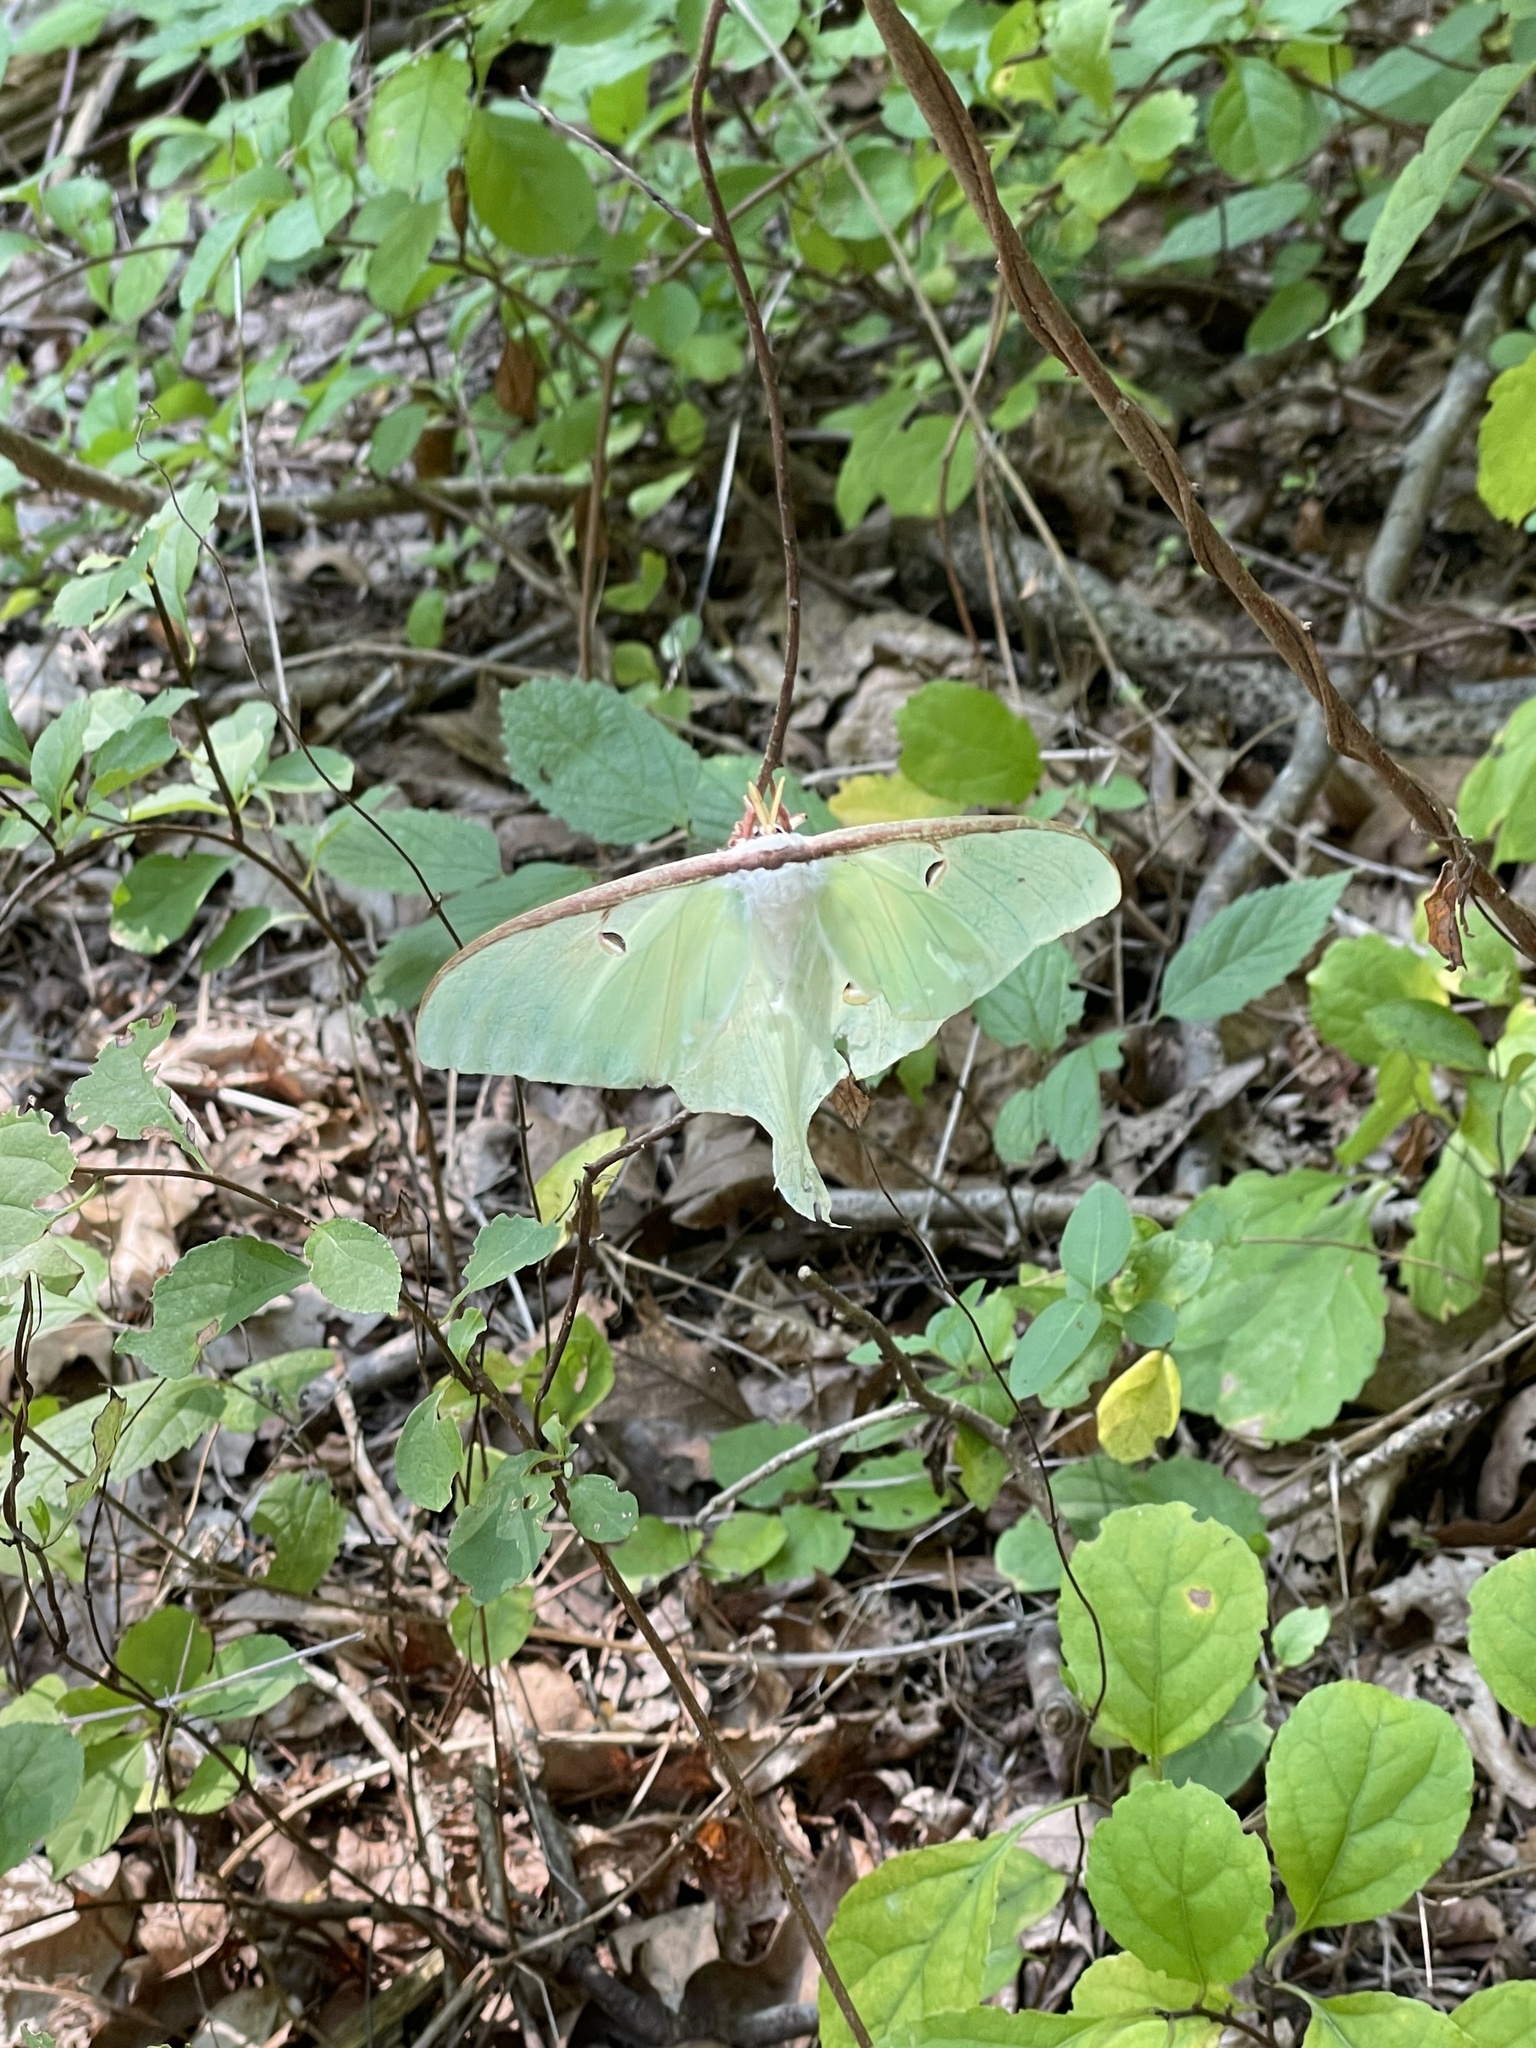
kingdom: Animalia
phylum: Arthropoda
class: Insecta
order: Lepidoptera
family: Saturniidae
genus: Actias
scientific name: Actias luna
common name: Luna moth
